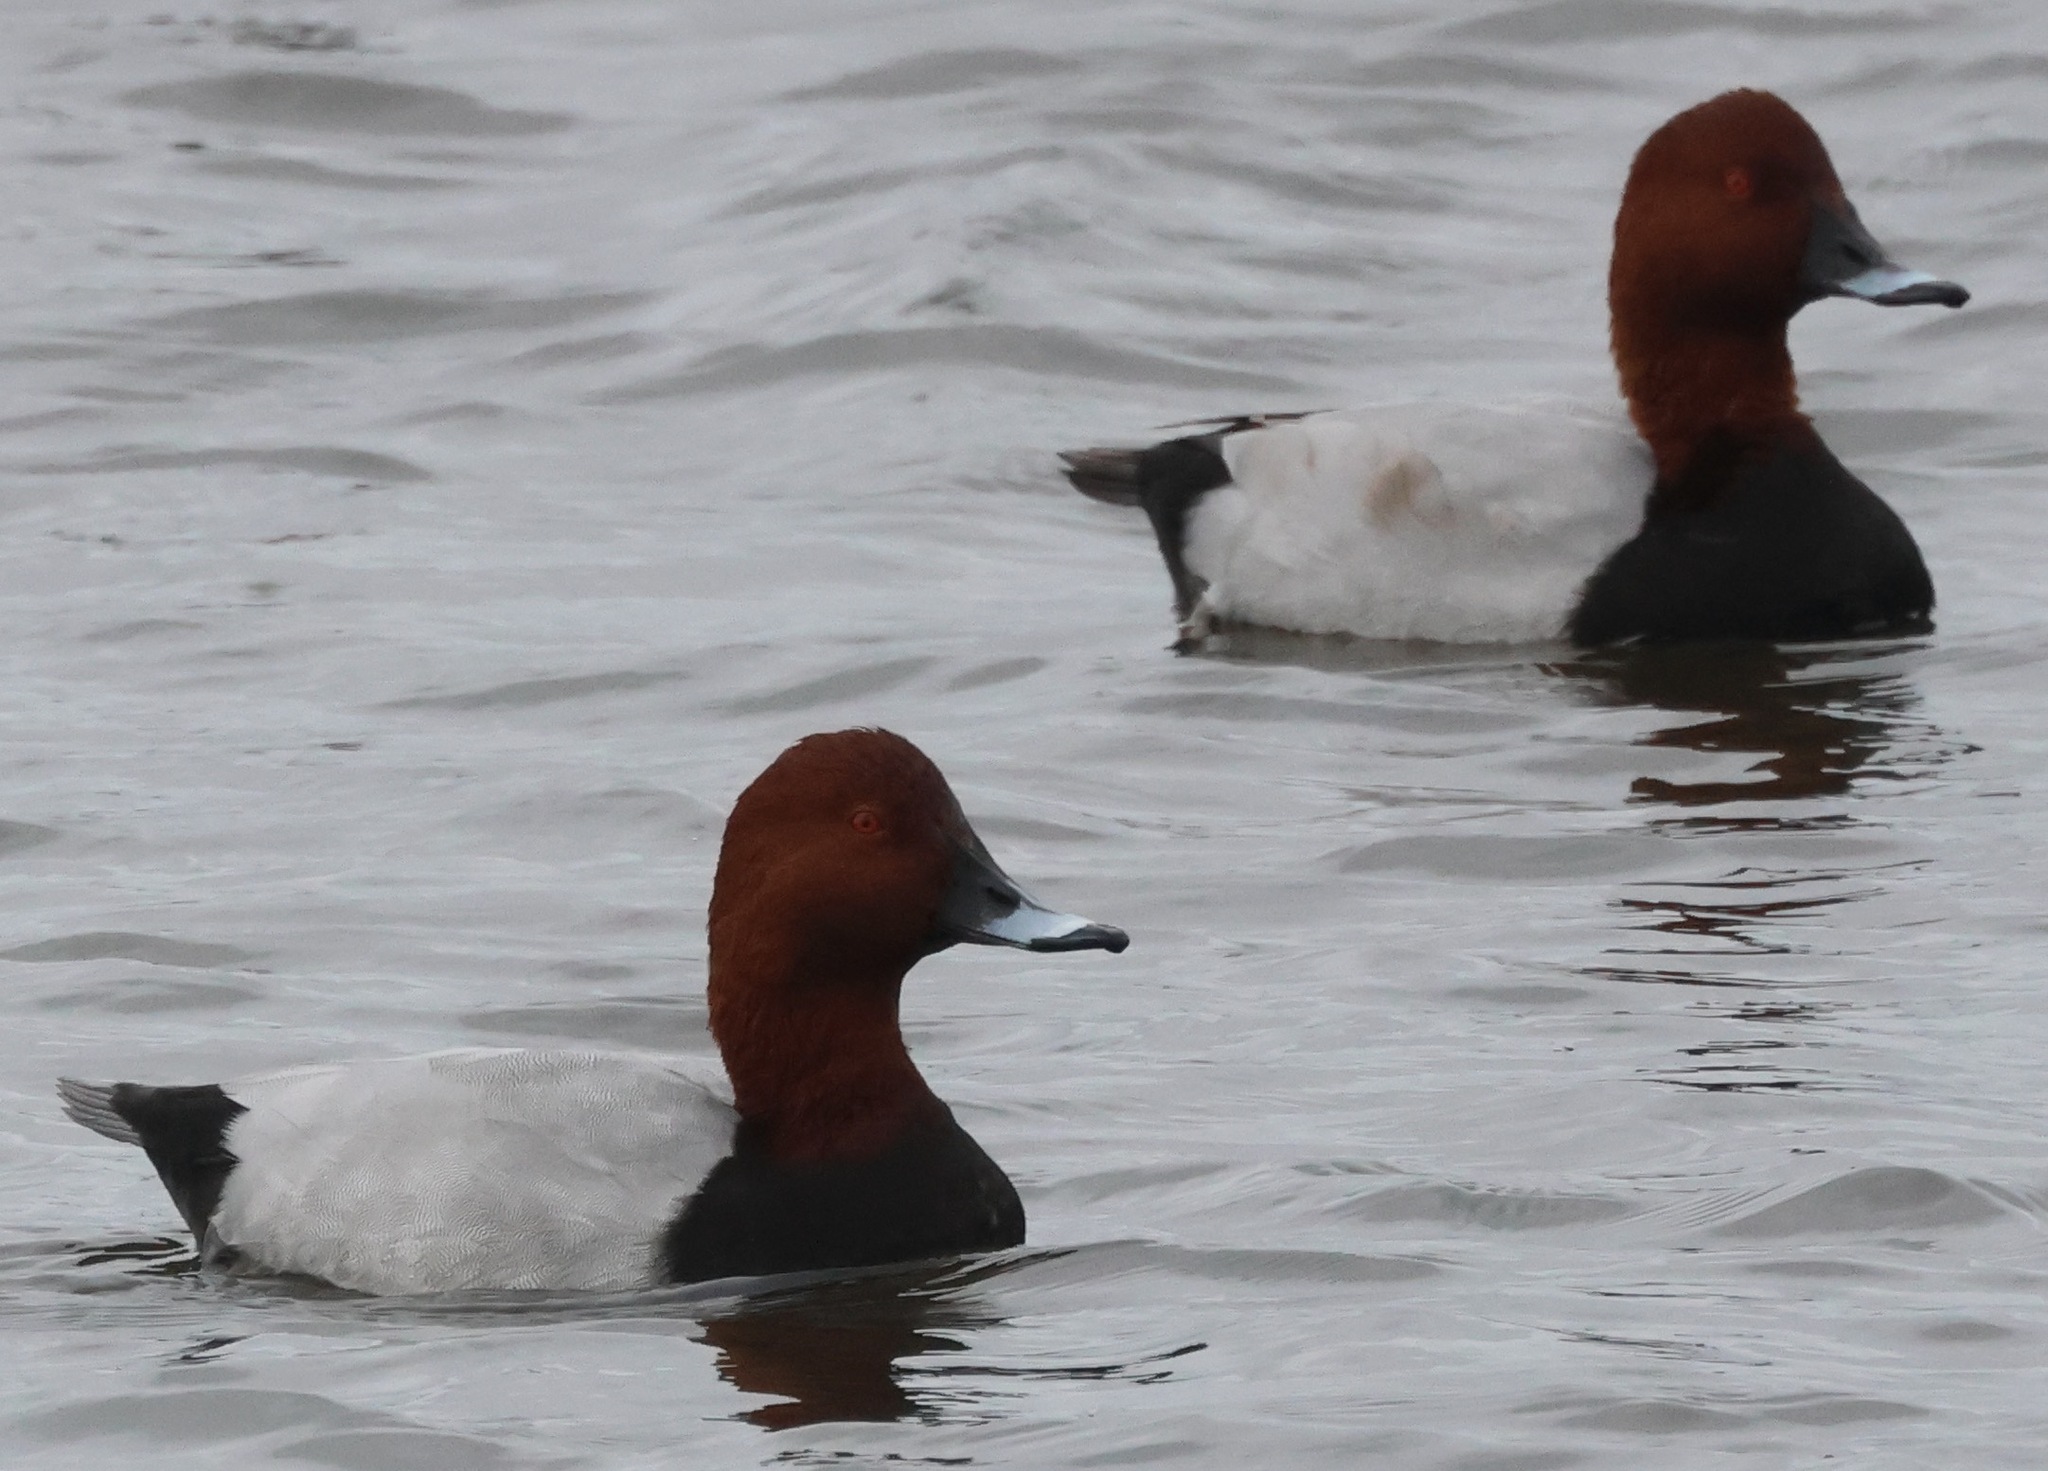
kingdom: Animalia
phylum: Chordata
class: Aves
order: Anseriformes
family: Anatidae
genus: Aythya
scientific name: Aythya ferina
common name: Common pochard
